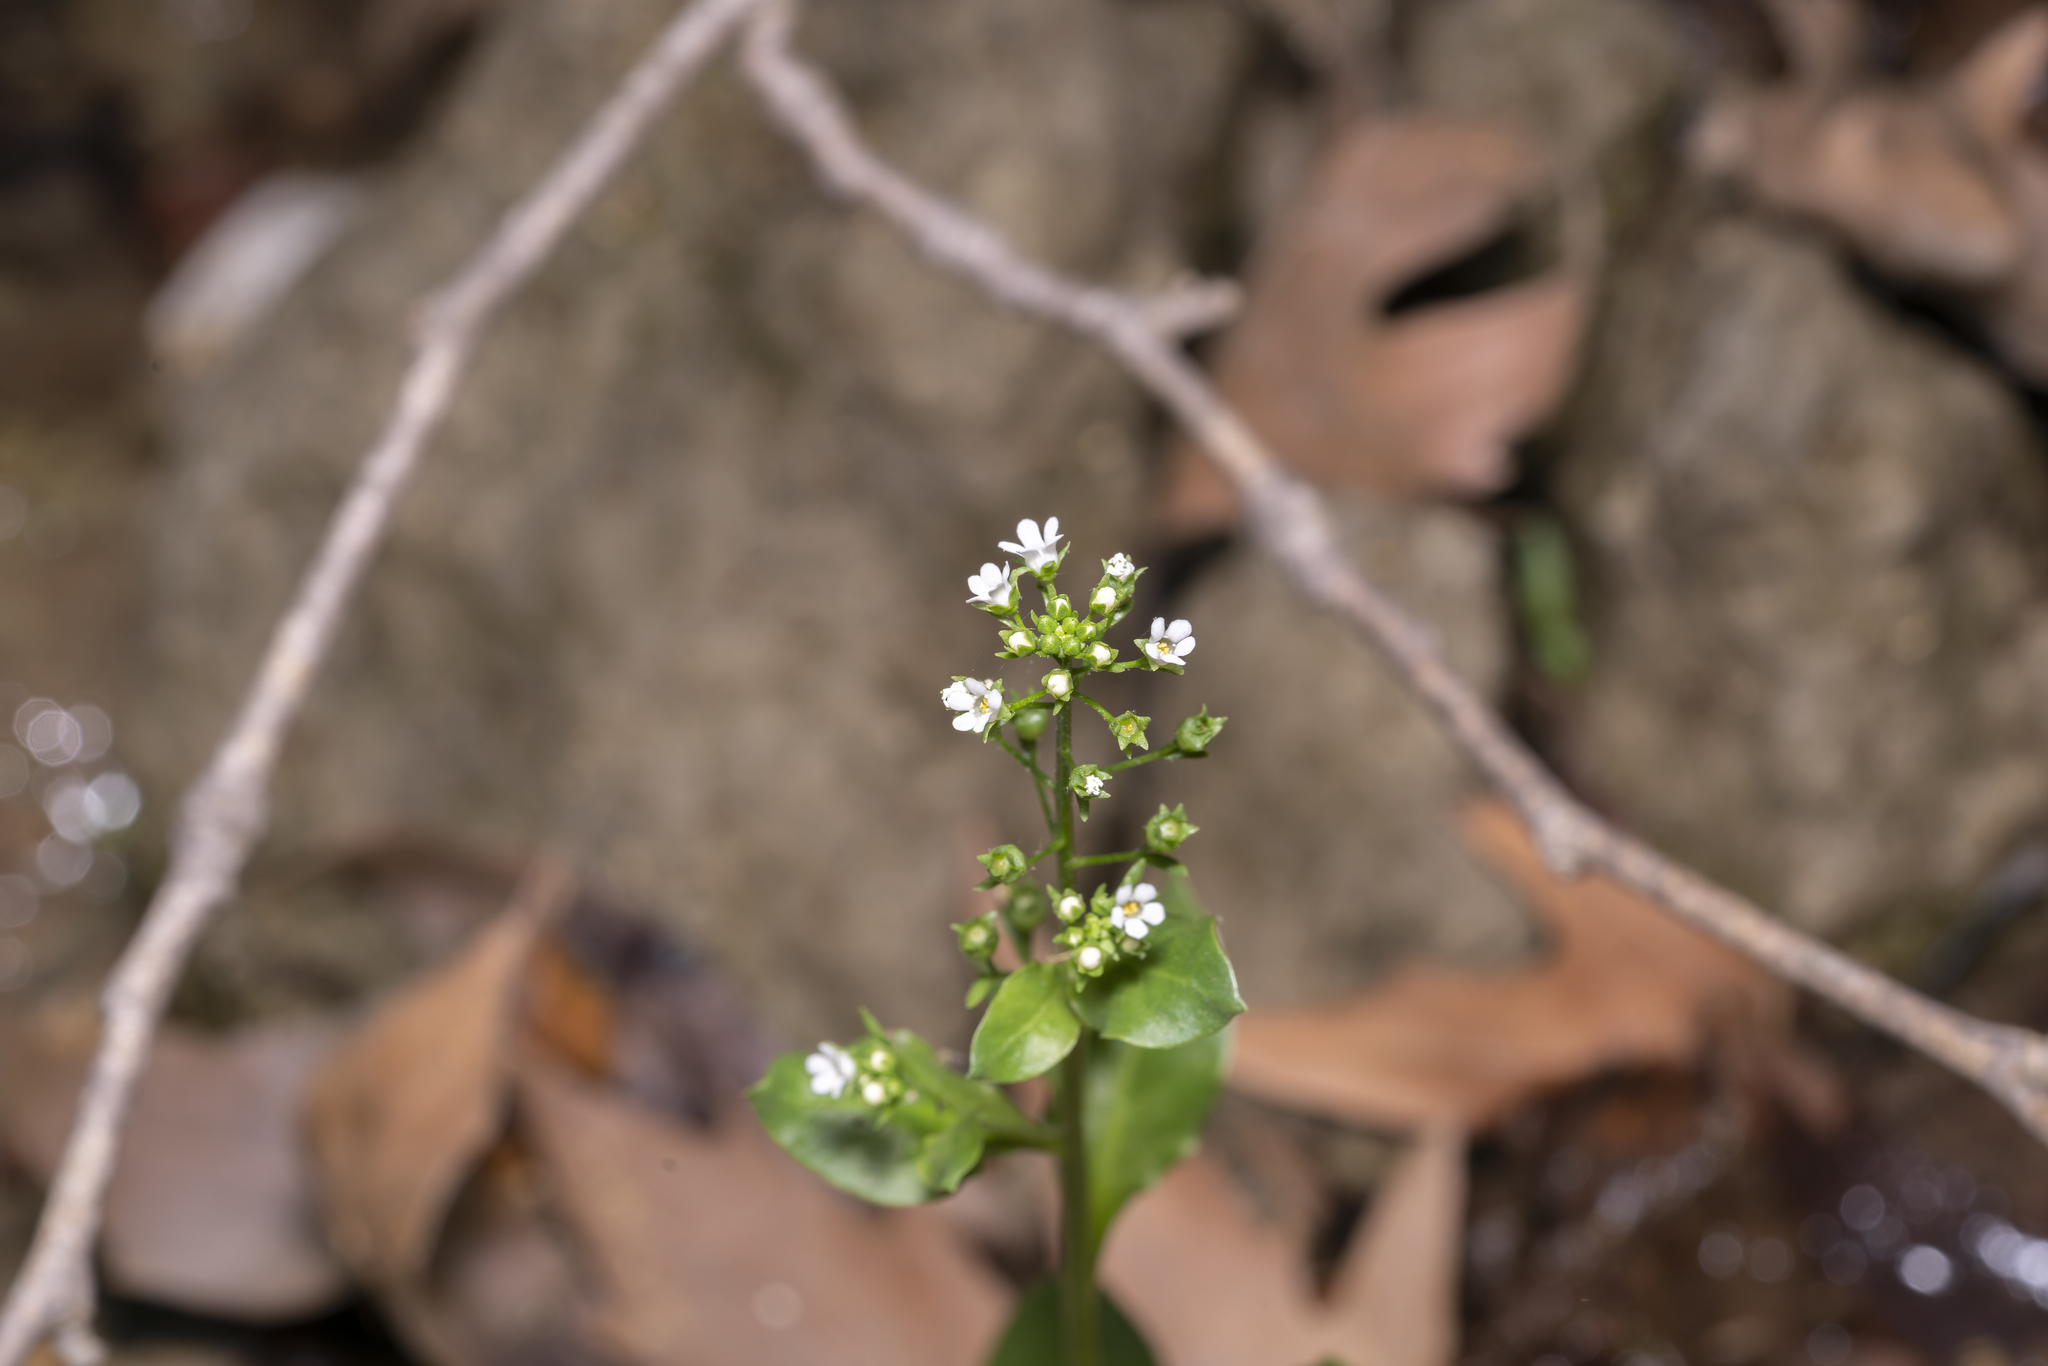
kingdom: Plantae
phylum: Tracheophyta
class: Magnoliopsida
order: Ericales
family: Primulaceae
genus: Samolus
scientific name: Samolus valerandi
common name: Brookweed
